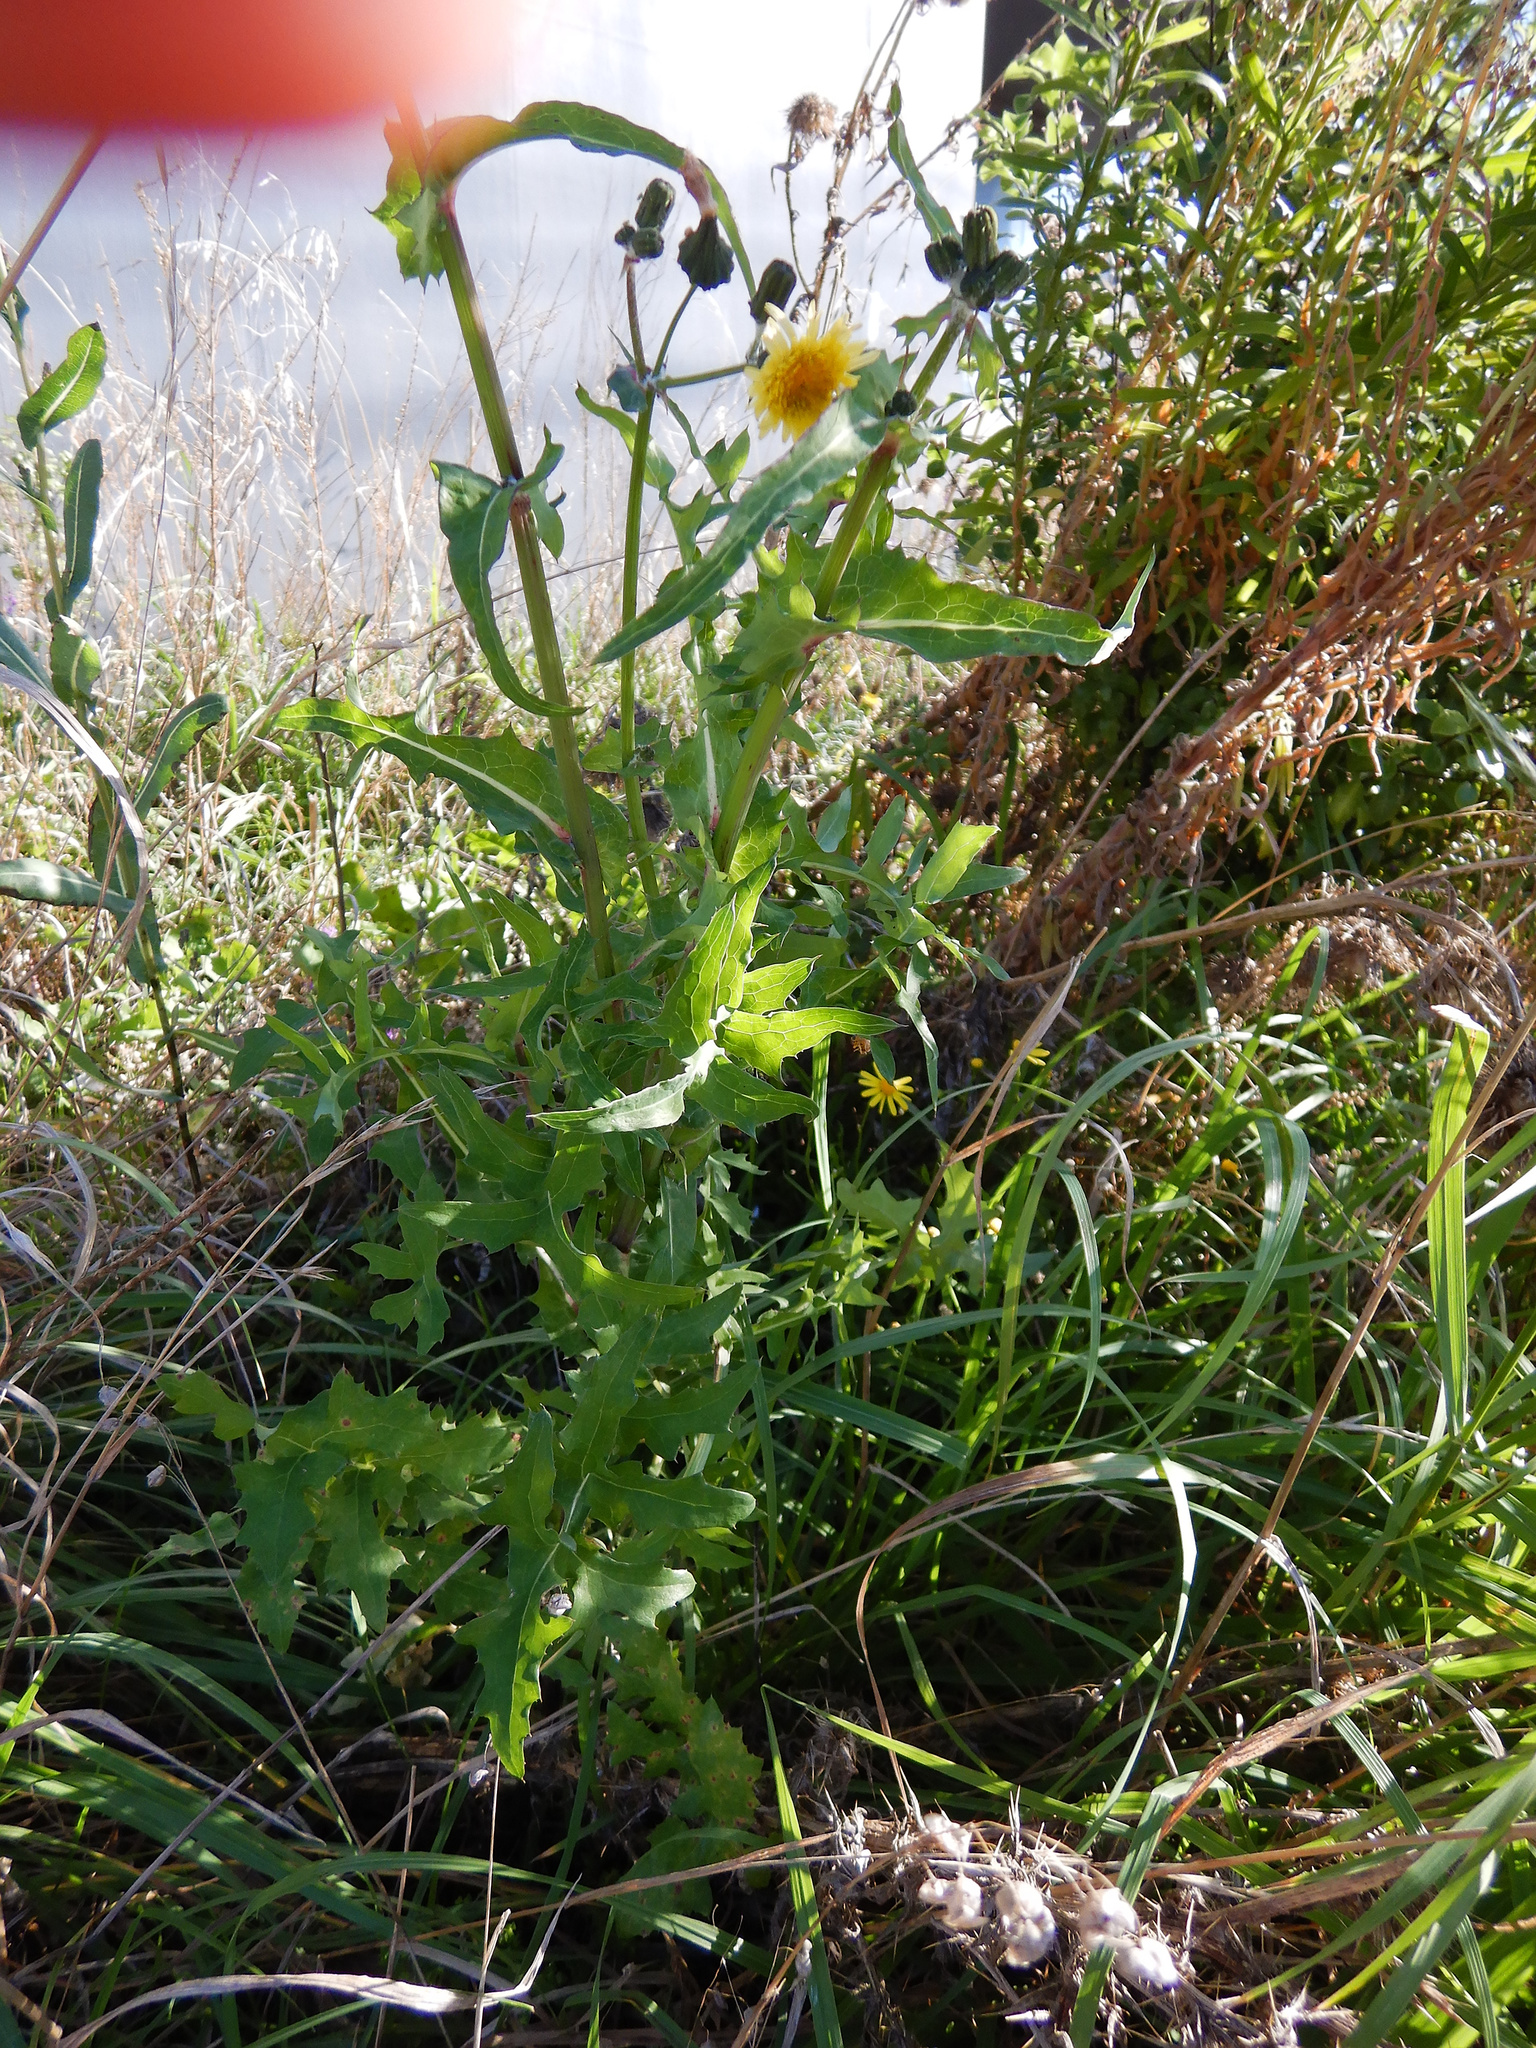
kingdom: Plantae
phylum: Tracheophyta
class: Magnoliopsida
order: Asterales
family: Asteraceae
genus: Sonchus
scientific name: Sonchus oleraceus
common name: Common sowthistle
